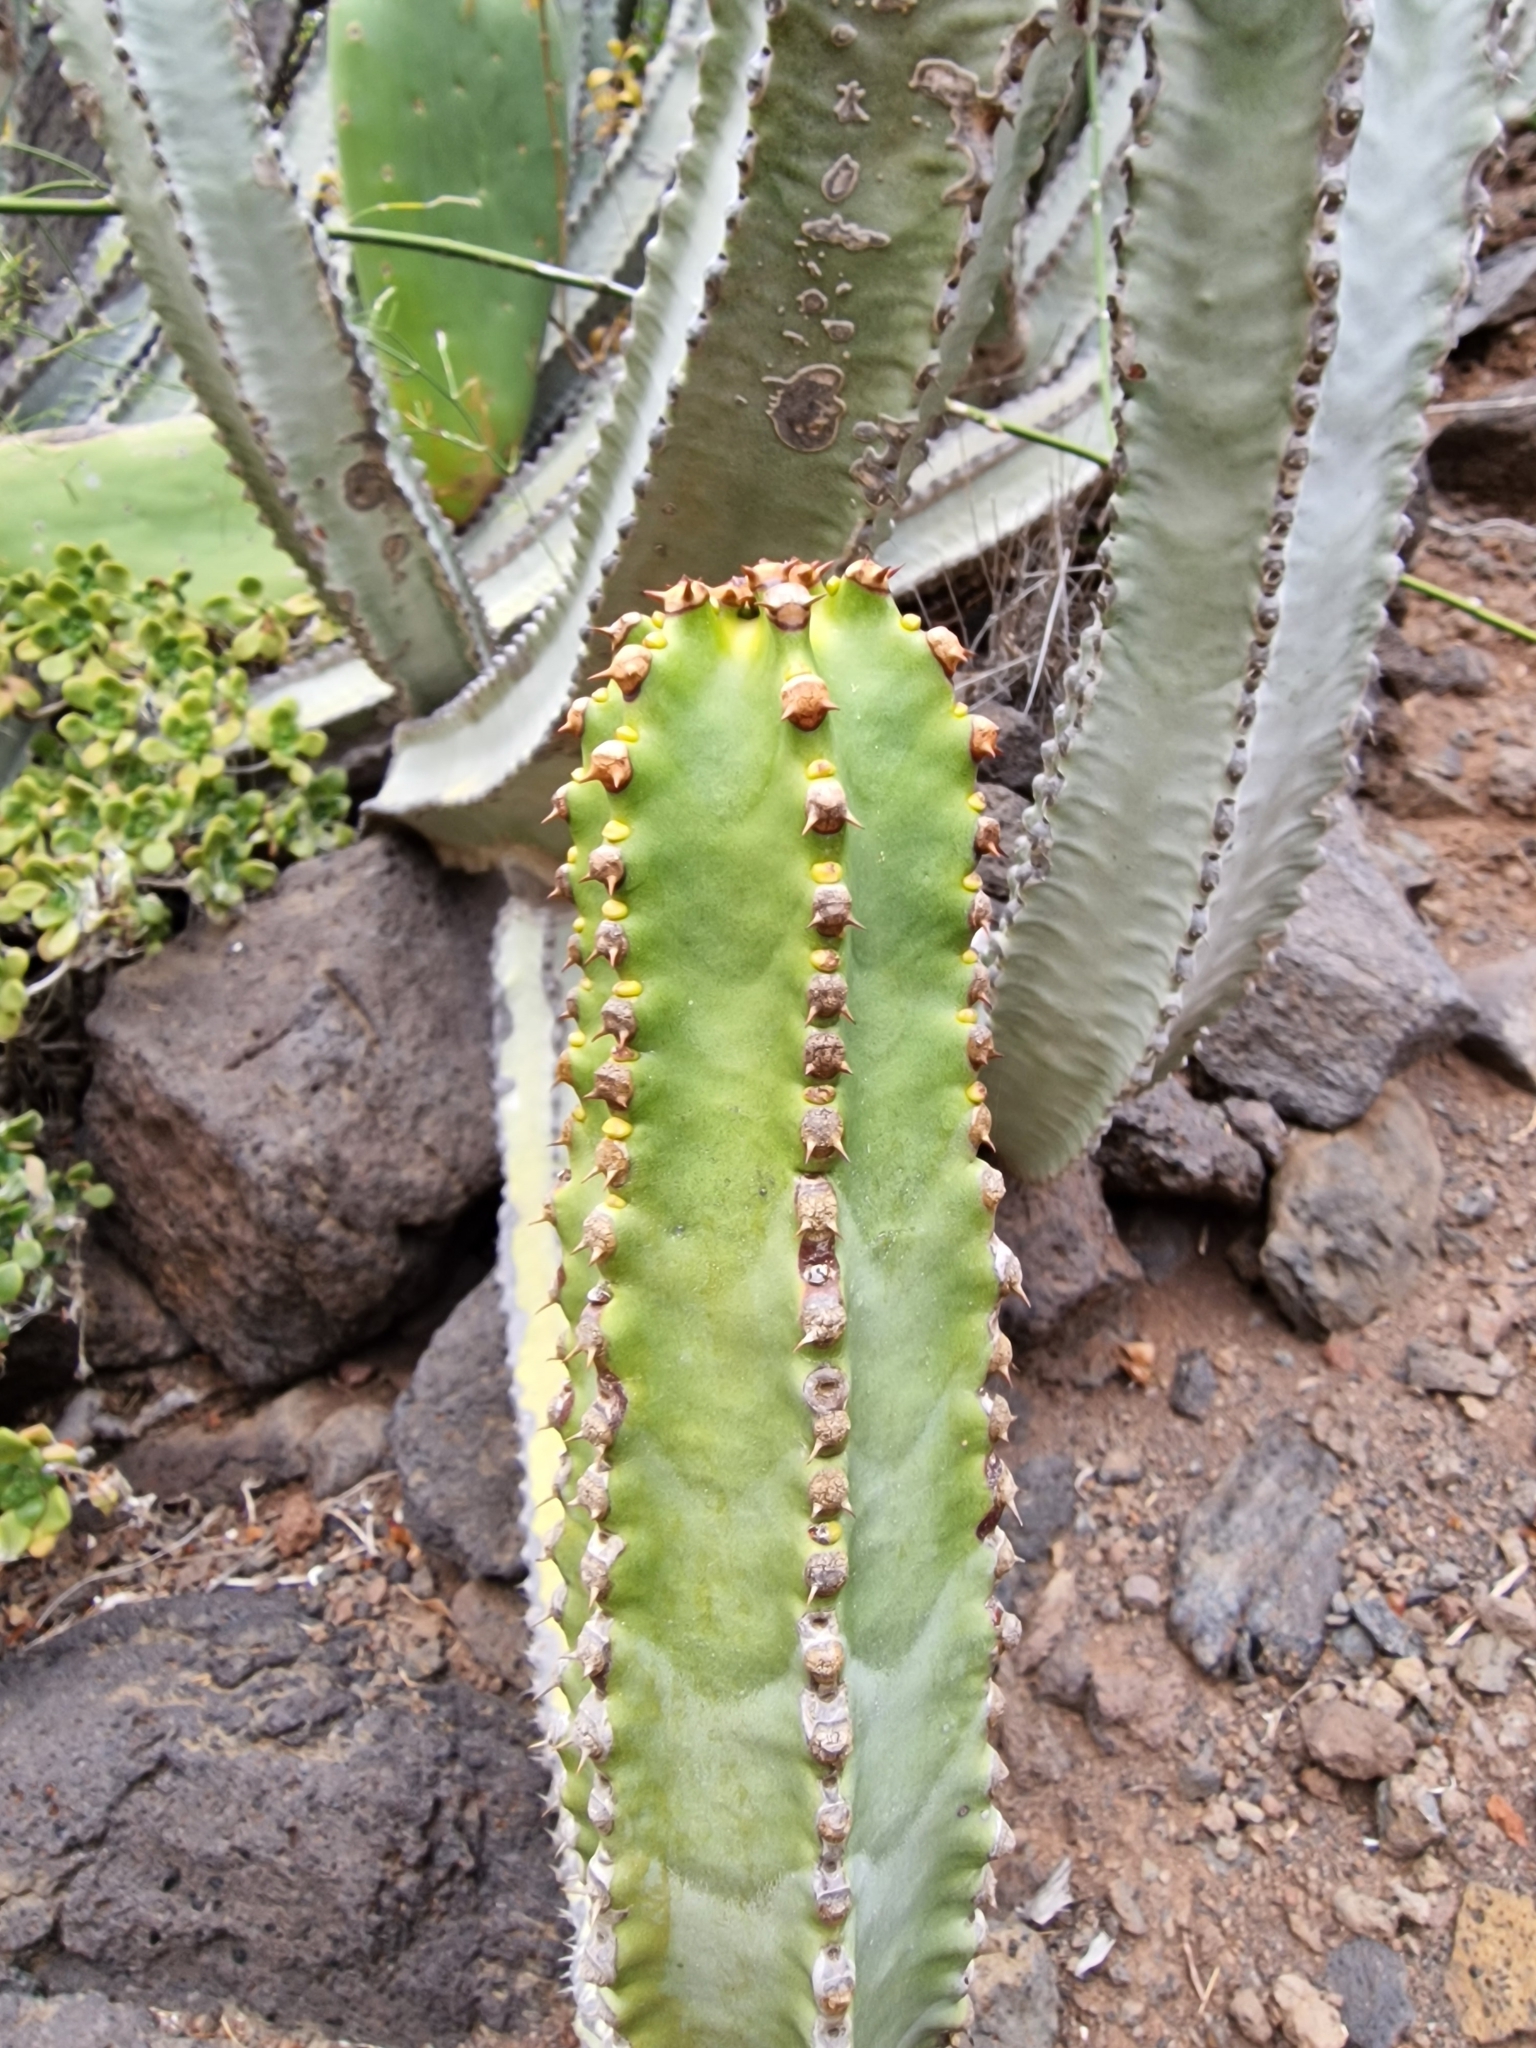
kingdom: Plantae
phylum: Tracheophyta
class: Magnoliopsida
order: Malpighiales
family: Euphorbiaceae
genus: Euphorbia
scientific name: Euphorbia canariensis
